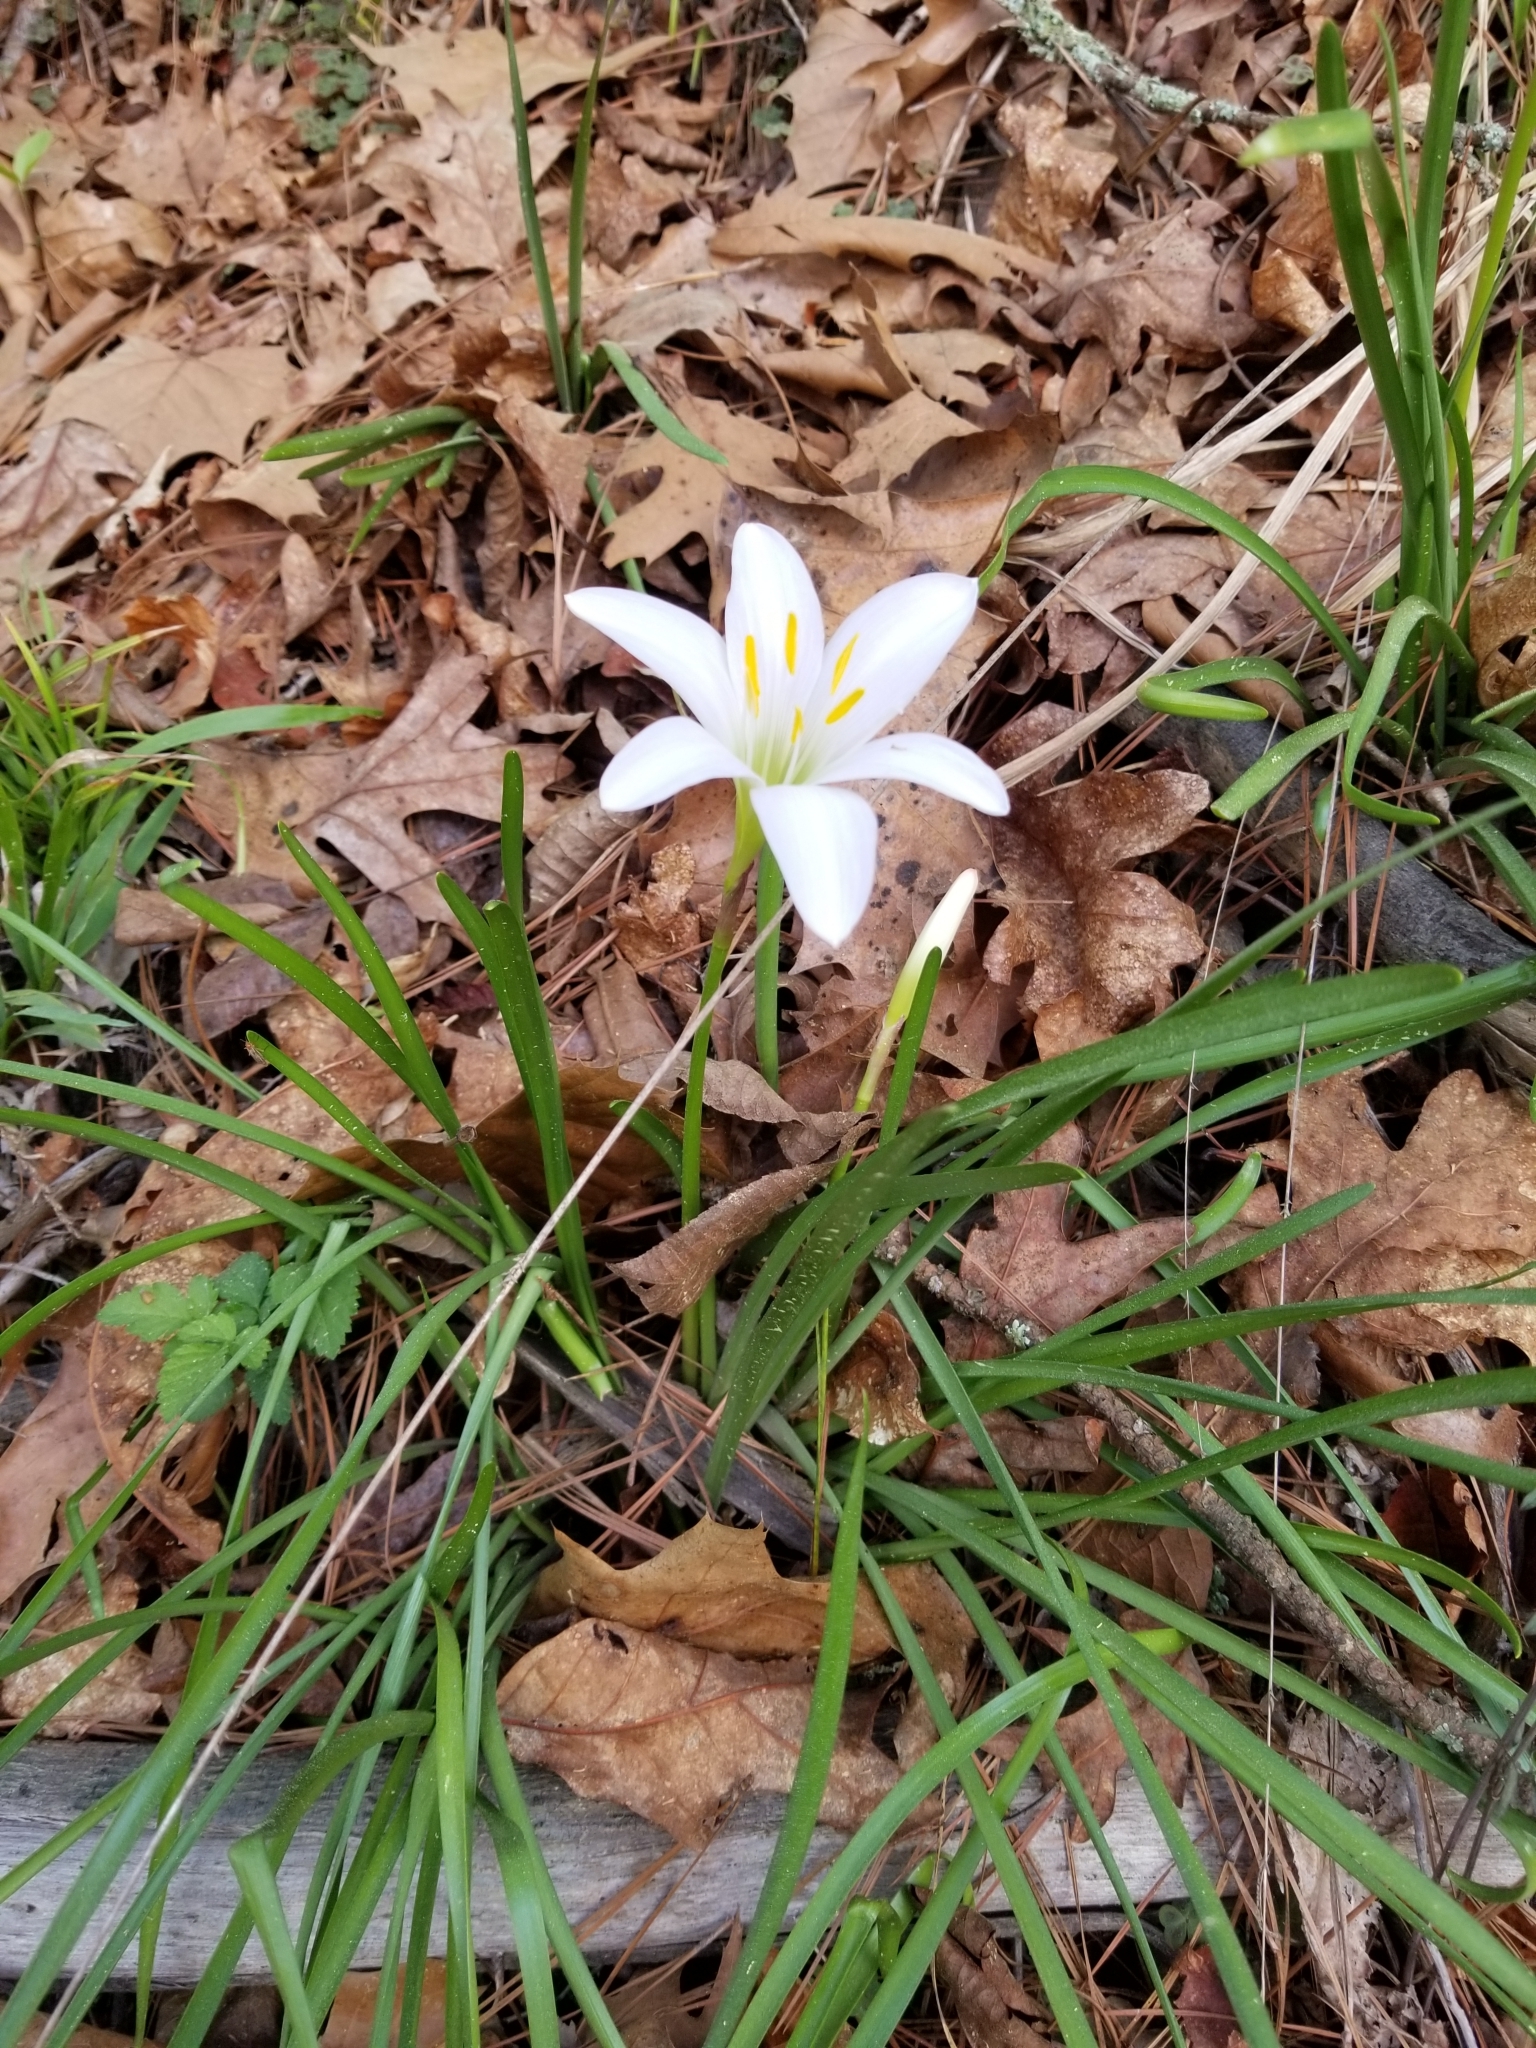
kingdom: Plantae
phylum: Tracheophyta
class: Liliopsida
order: Asparagales
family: Amaryllidaceae
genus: Zephyranthes
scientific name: Zephyranthes atamasco
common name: Atamasco lily
